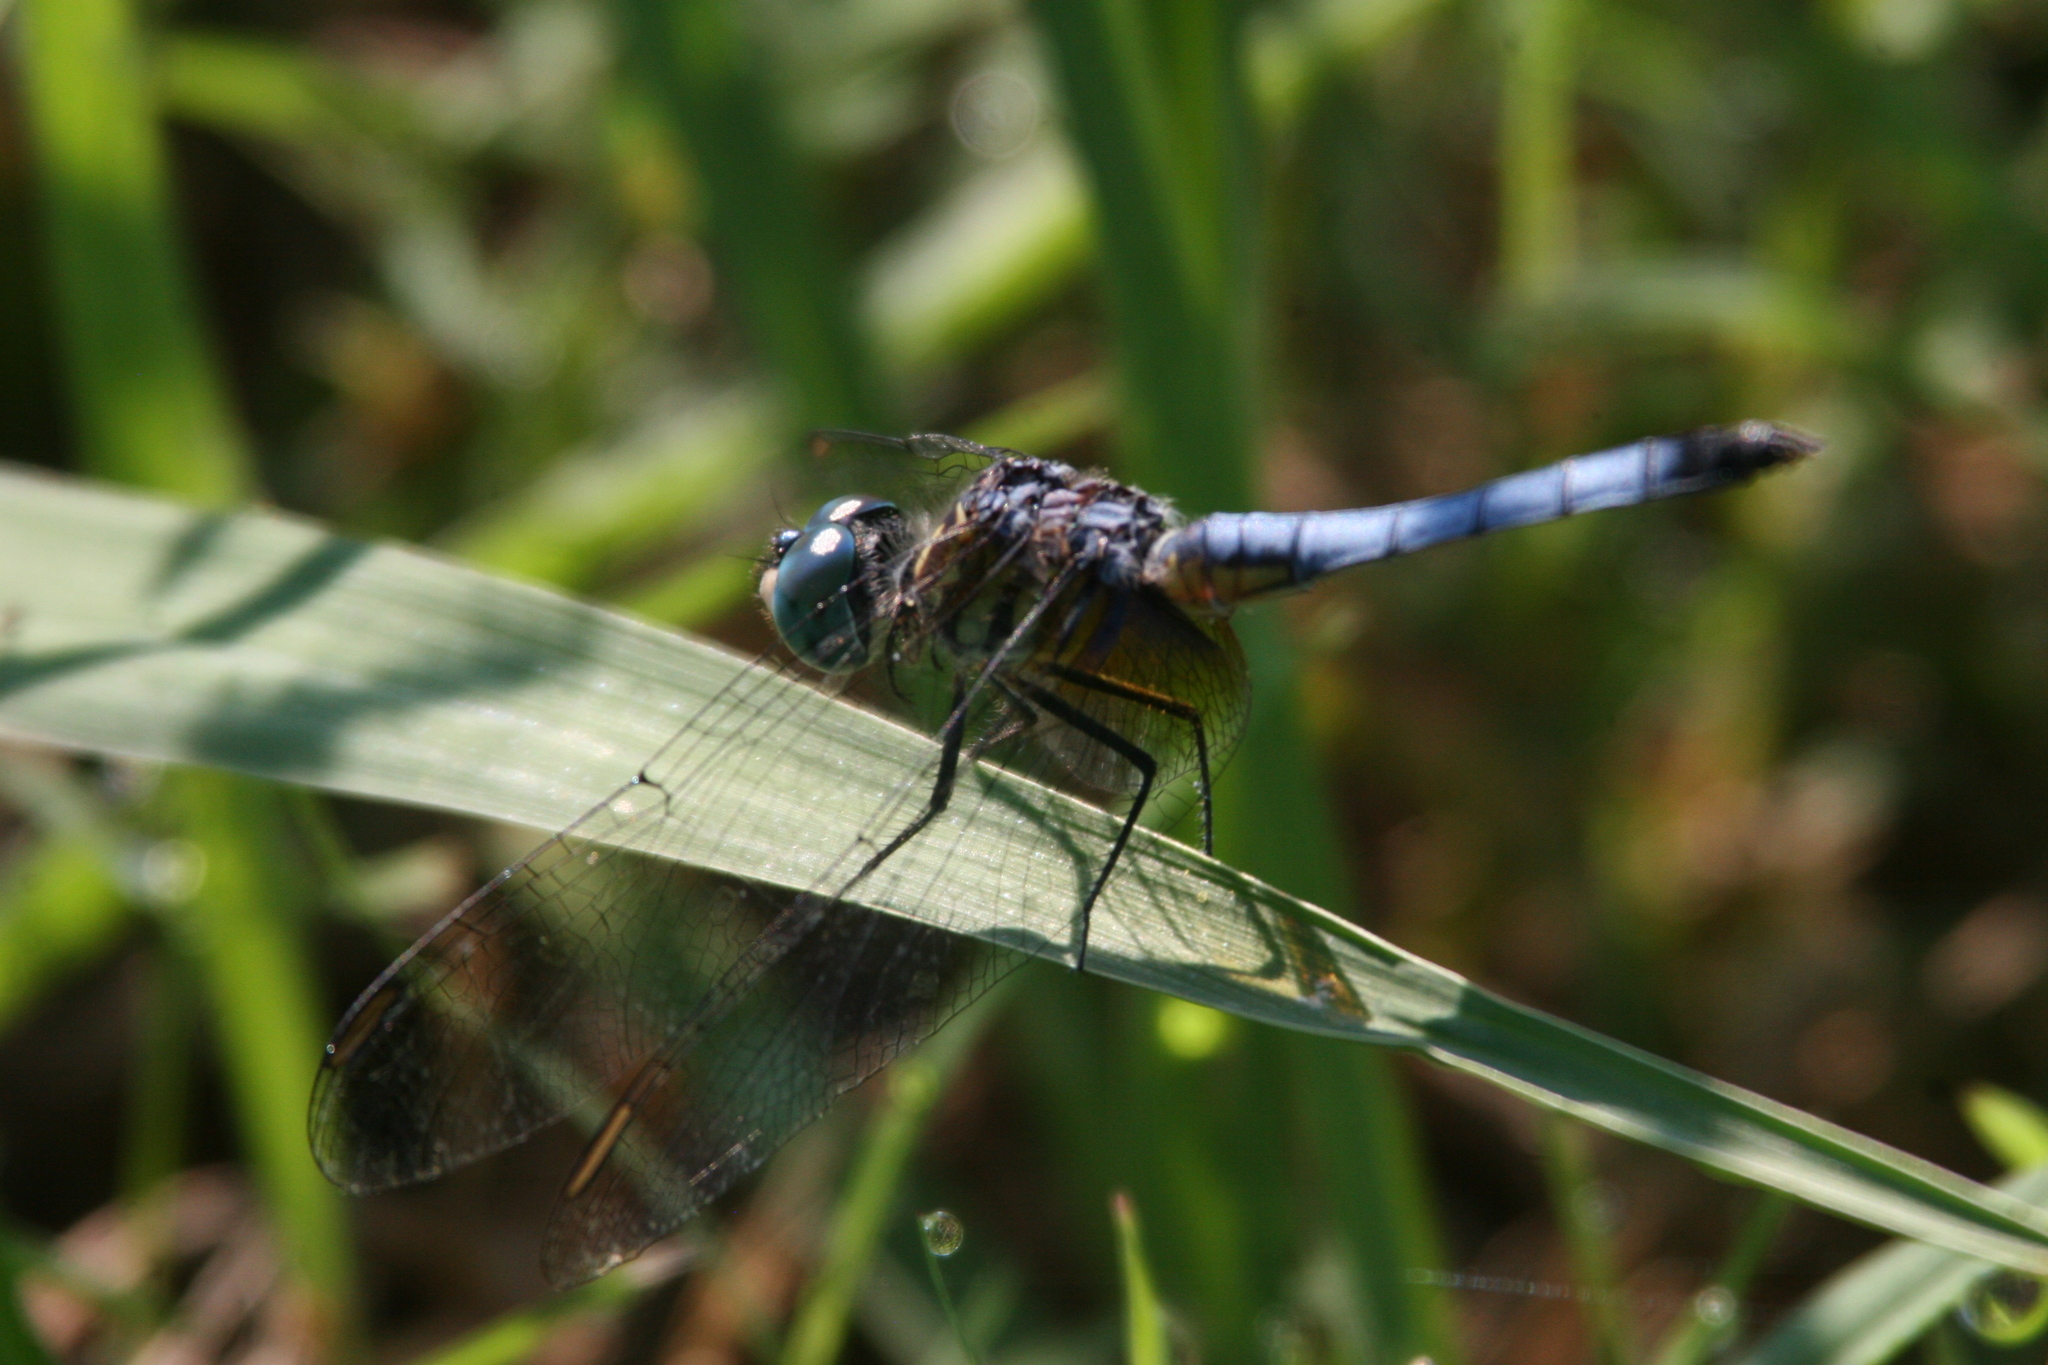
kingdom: Animalia
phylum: Arthropoda
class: Insecta
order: Odonata
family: Libellulidae
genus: Pachydiplax
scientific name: Pachydiplax longipennis
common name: Blue dasher
